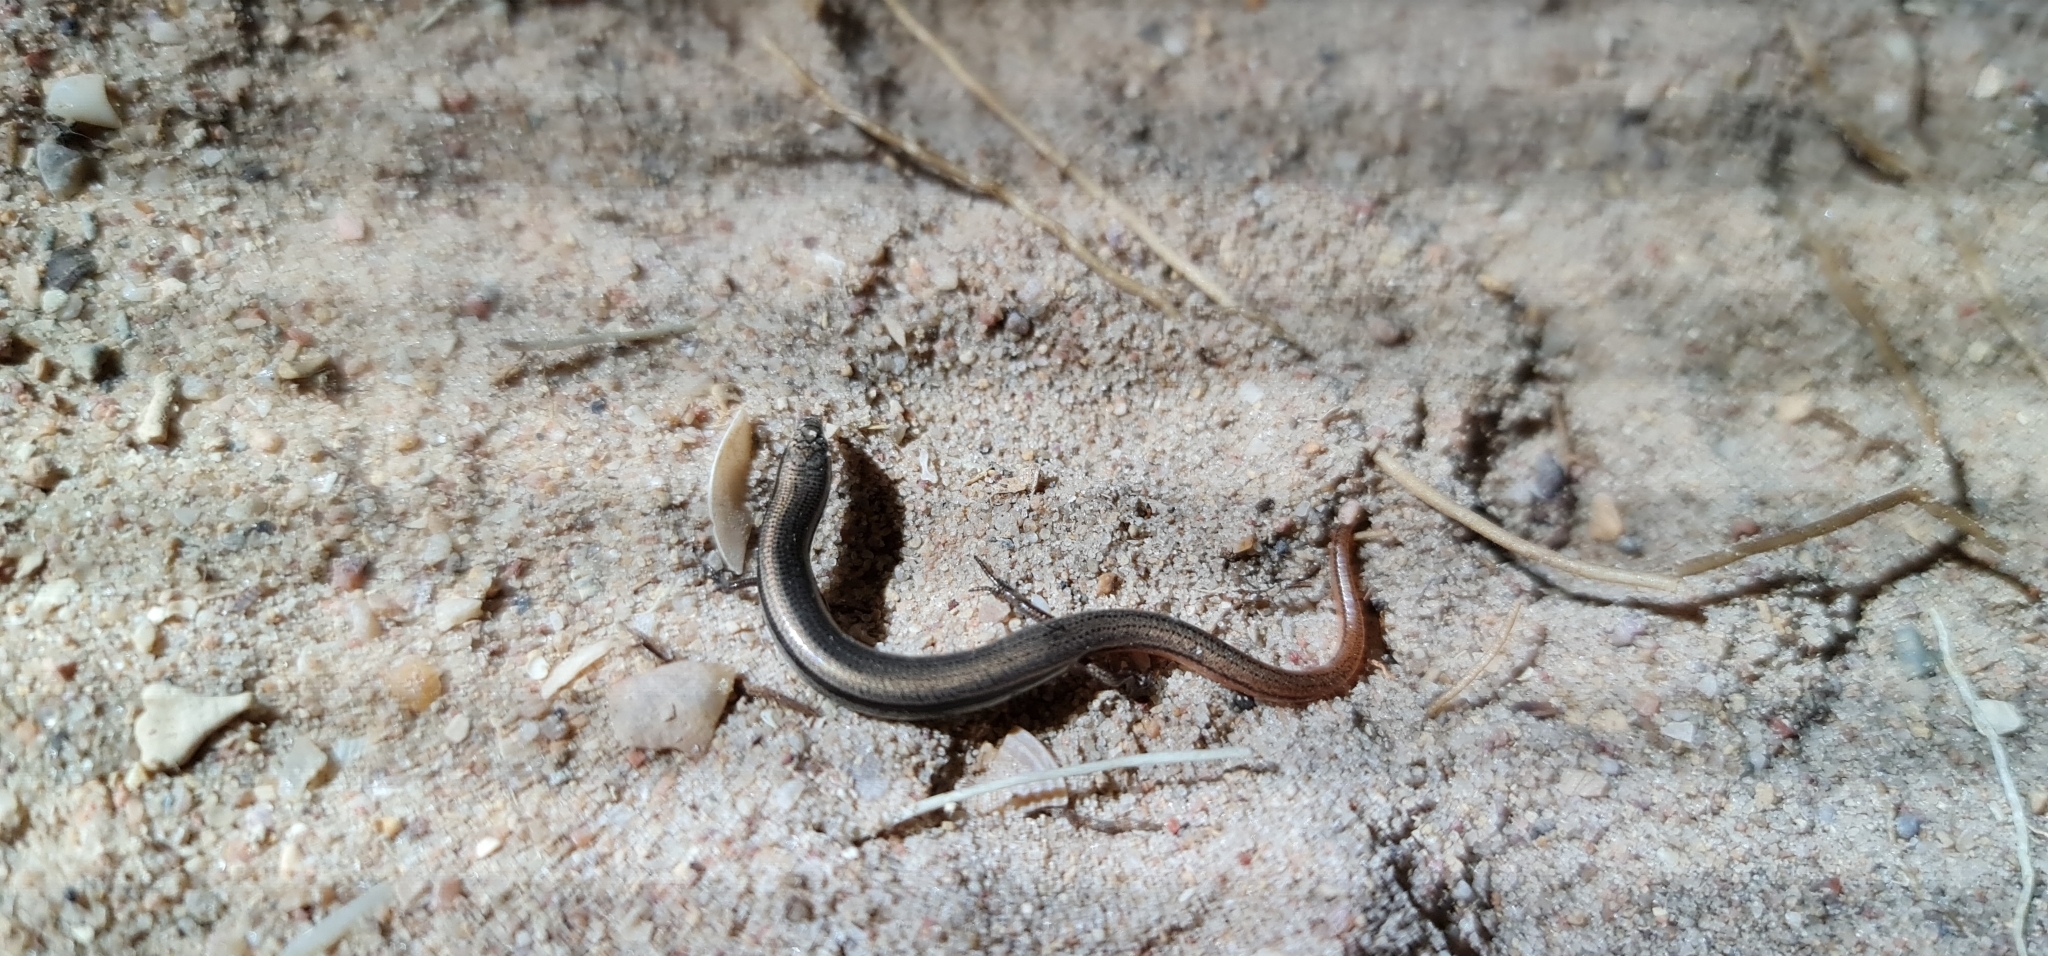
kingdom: Animalia
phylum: Chordata
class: Squamata
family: Scincidae
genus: Lerista
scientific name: Lerista dorsalis
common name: Southern slider
